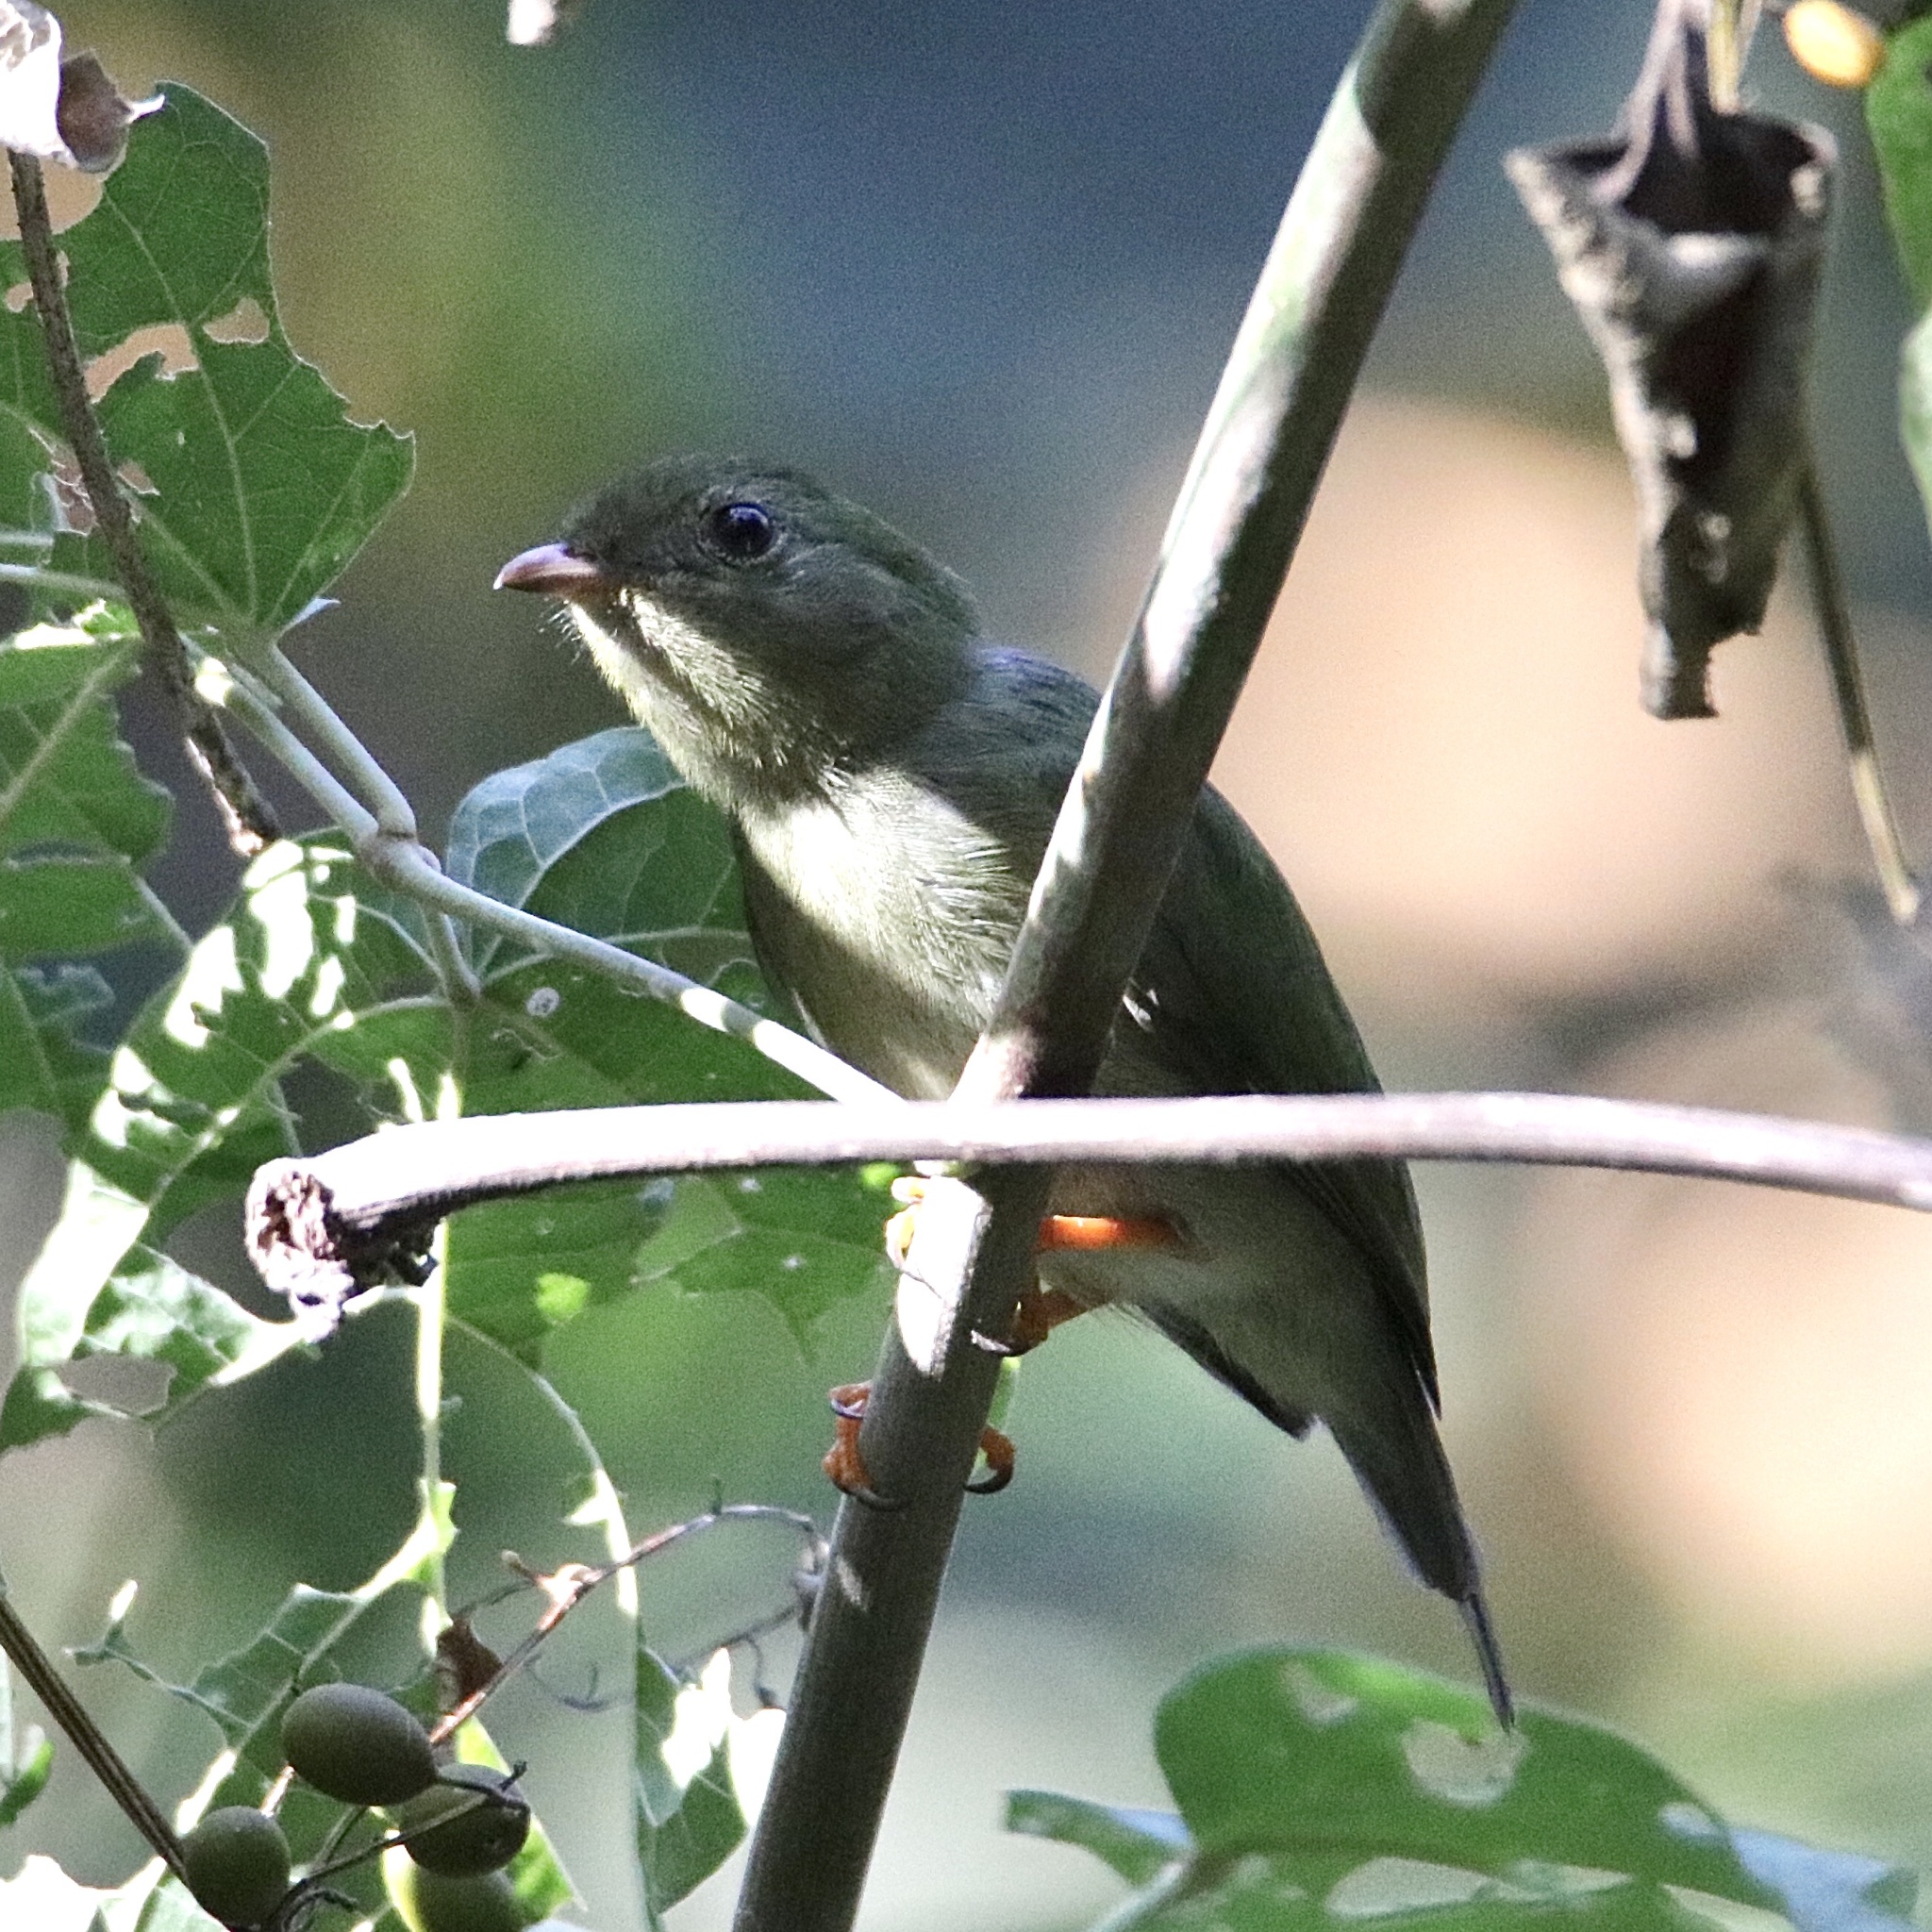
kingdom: Animalia
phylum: Chordata
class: Aves
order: Passeriformes
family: Pipridae
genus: Chiroxiphia
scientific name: Chiroxiphia lanceolata
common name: Lance-tailed manakin
